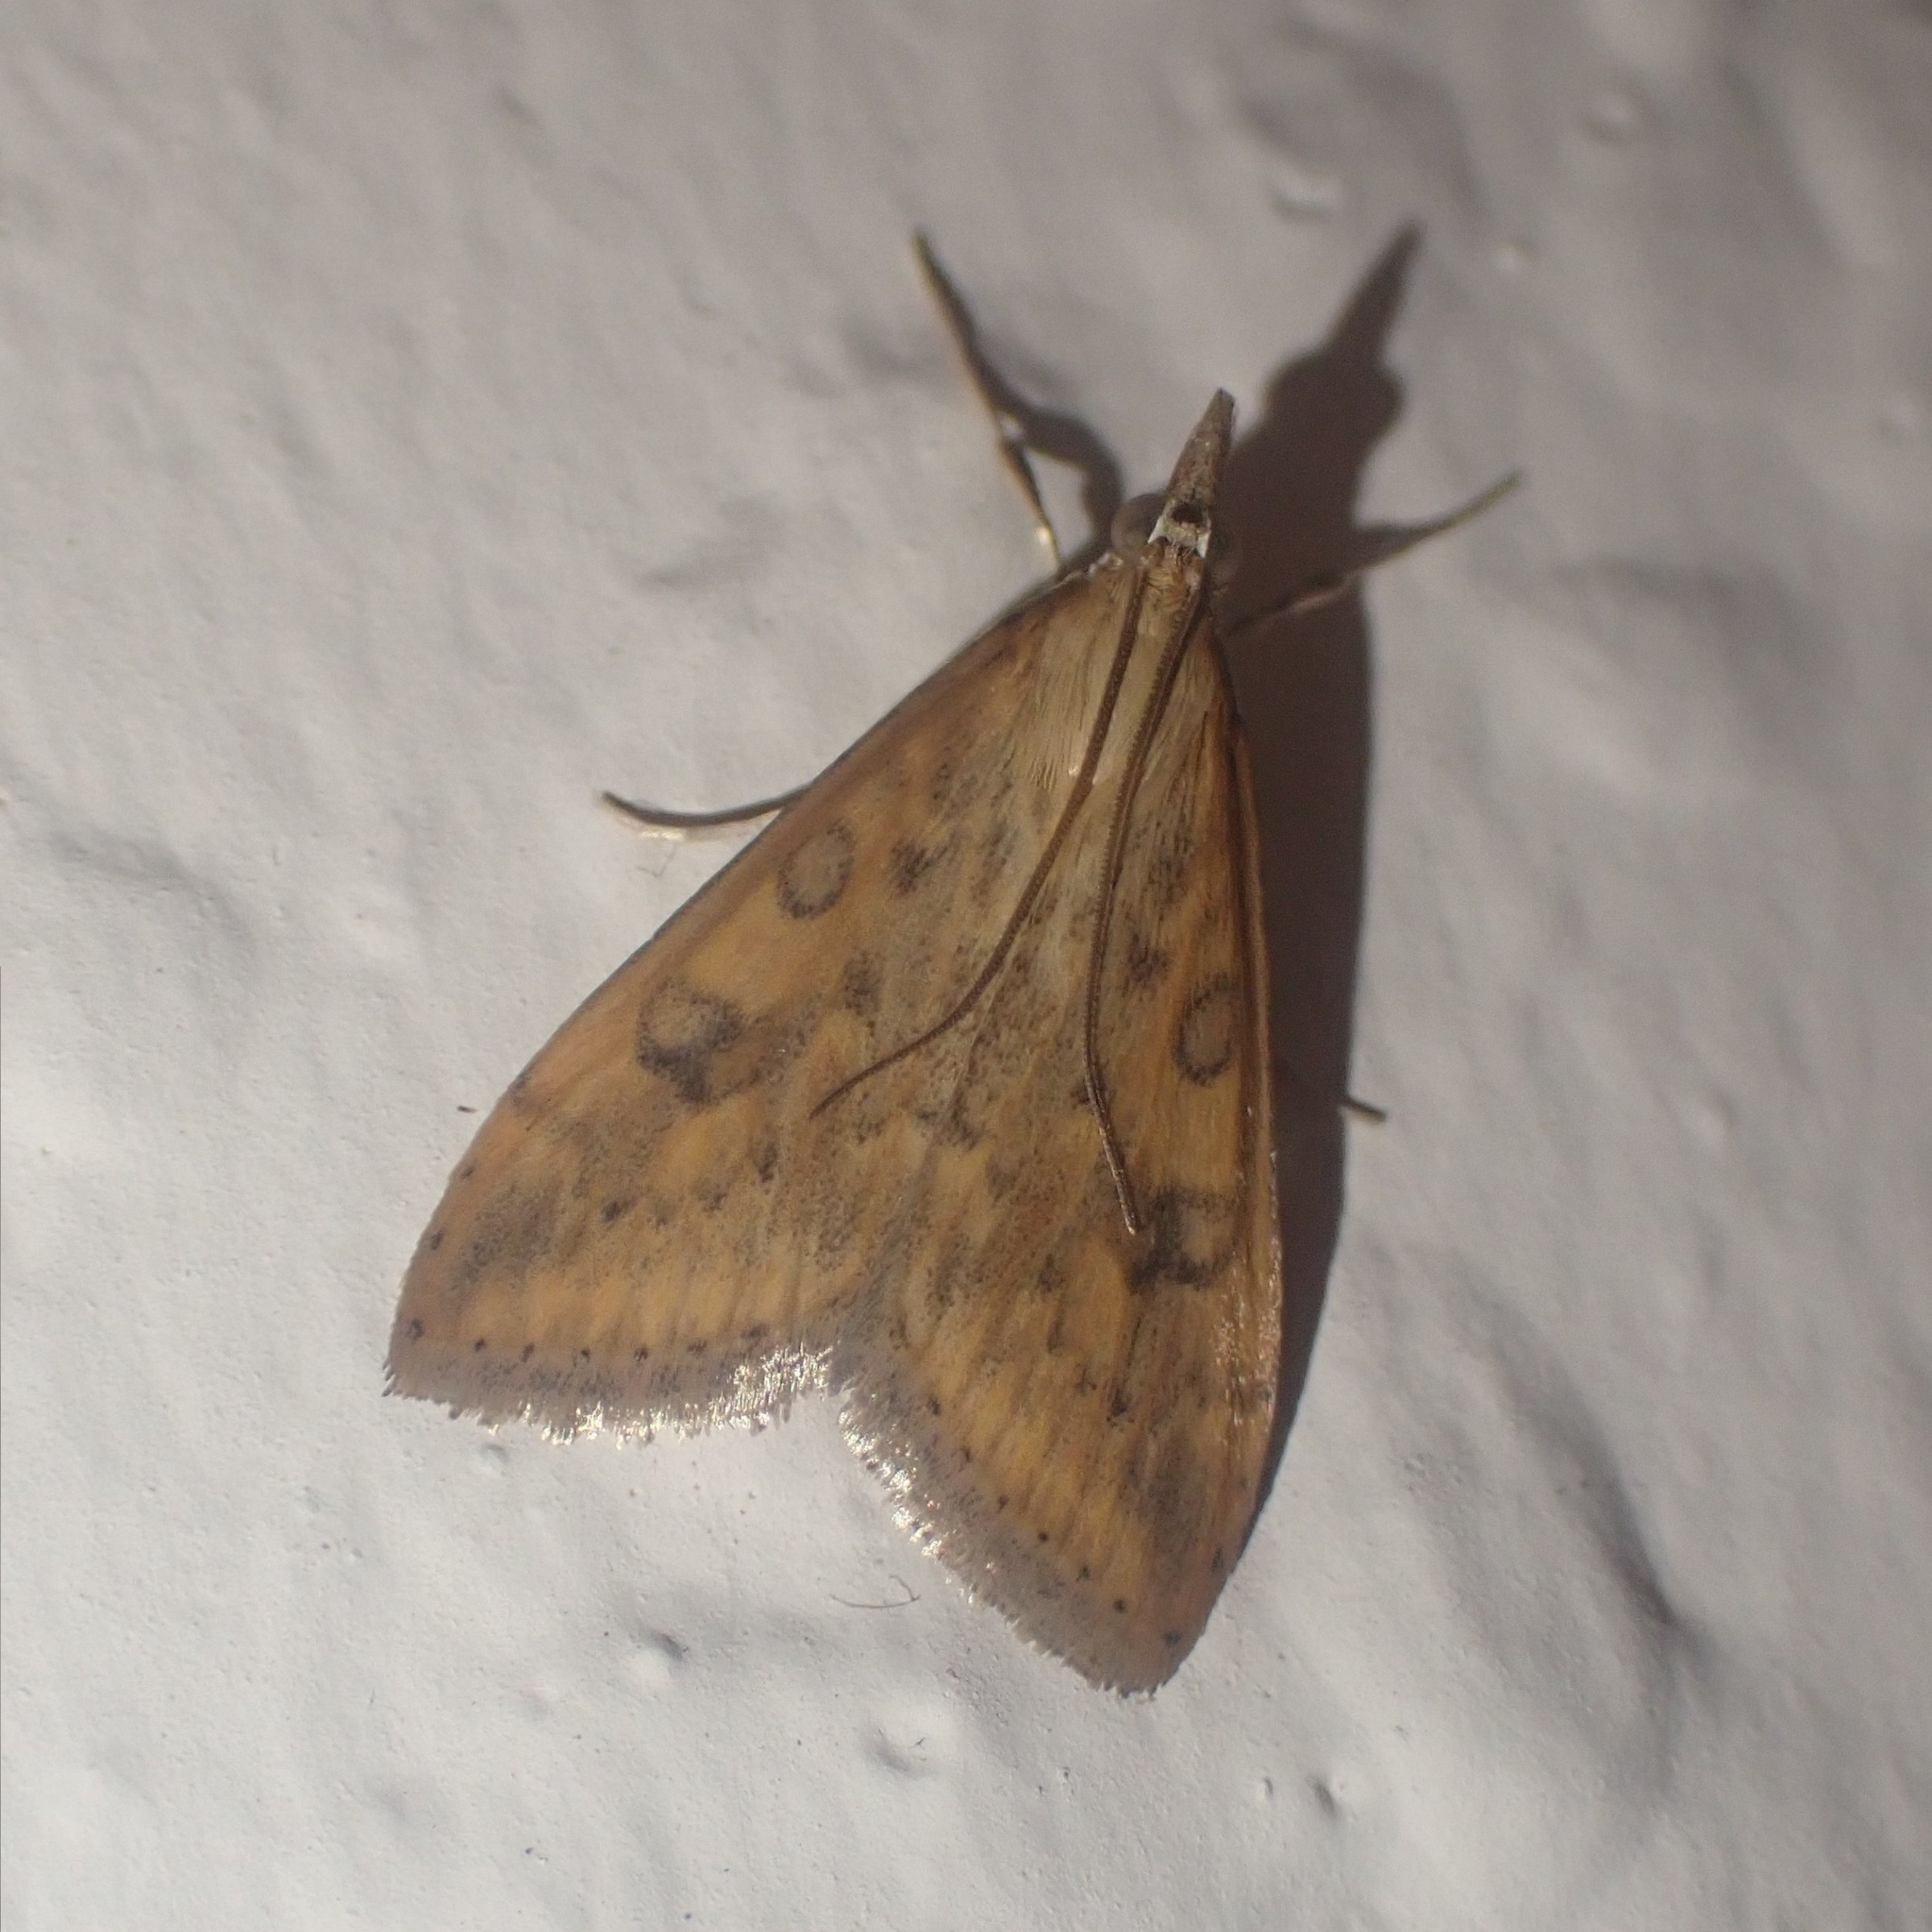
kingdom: Animalia
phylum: Arthropoda
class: Insecta
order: Lepidoptera
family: Crambidae
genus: Udea
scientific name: Udea ferrugalis
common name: Rusty dot
